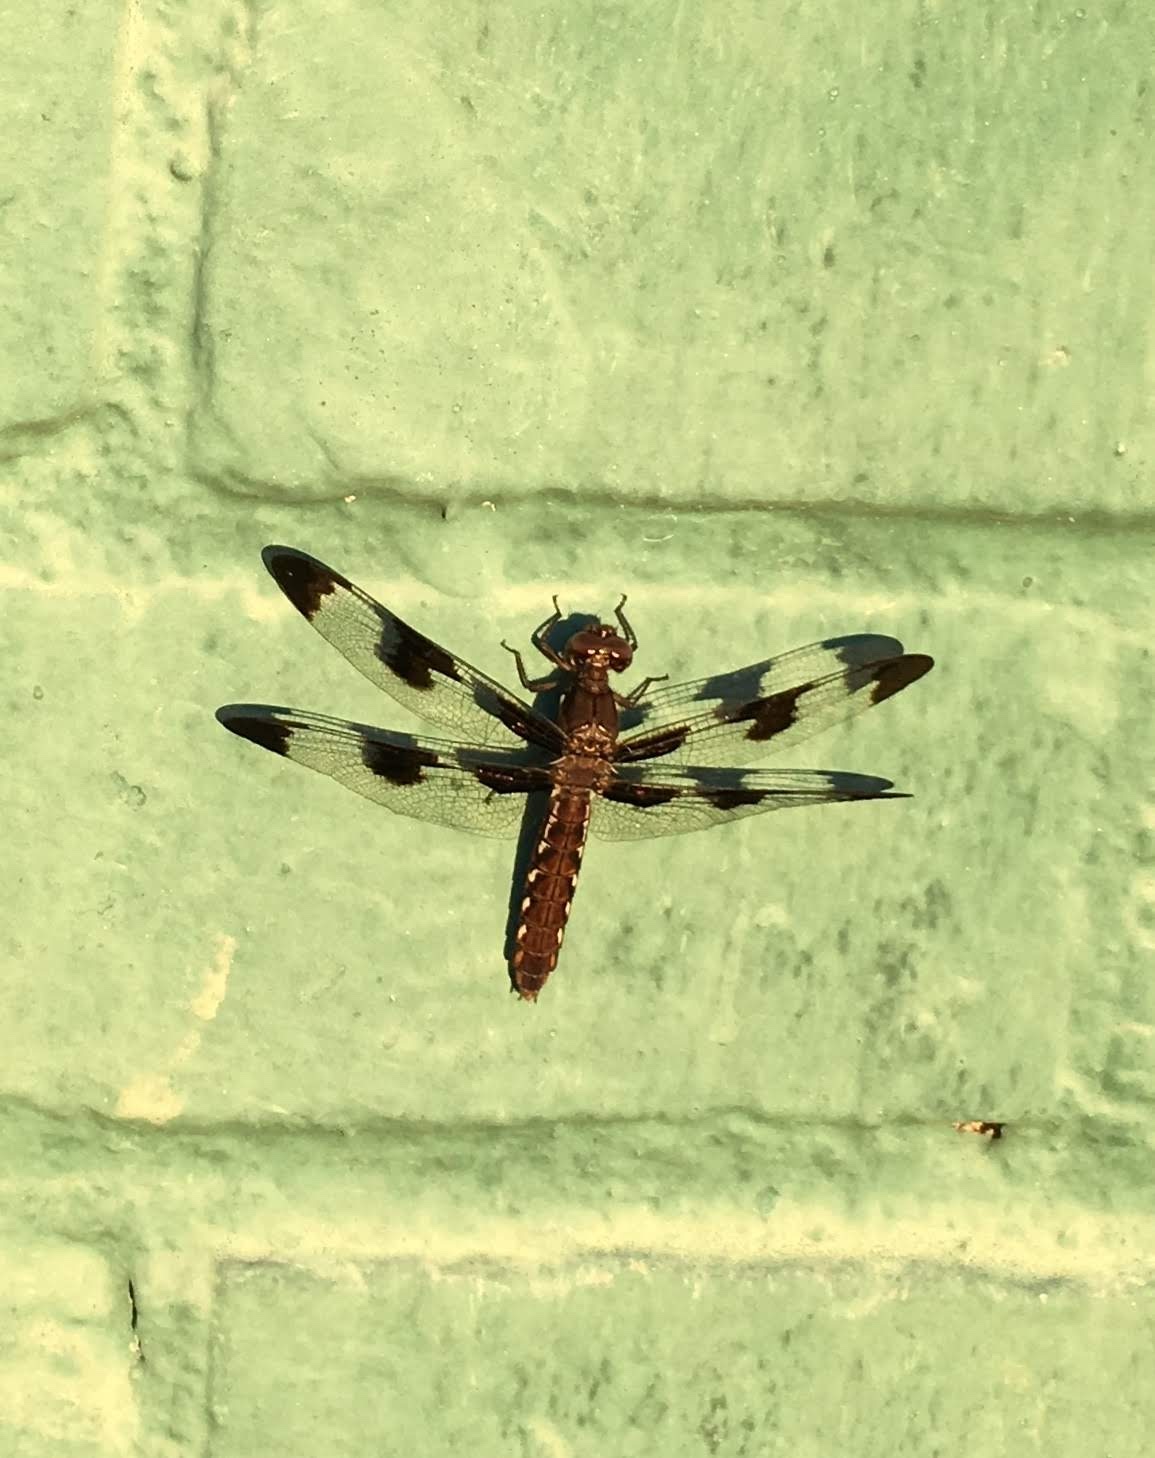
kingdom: Animalia
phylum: Arthropoda
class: Insecta
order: Odonata
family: Libellulidae
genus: Plathemis
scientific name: Plathemis lydia
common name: Common whitetail
